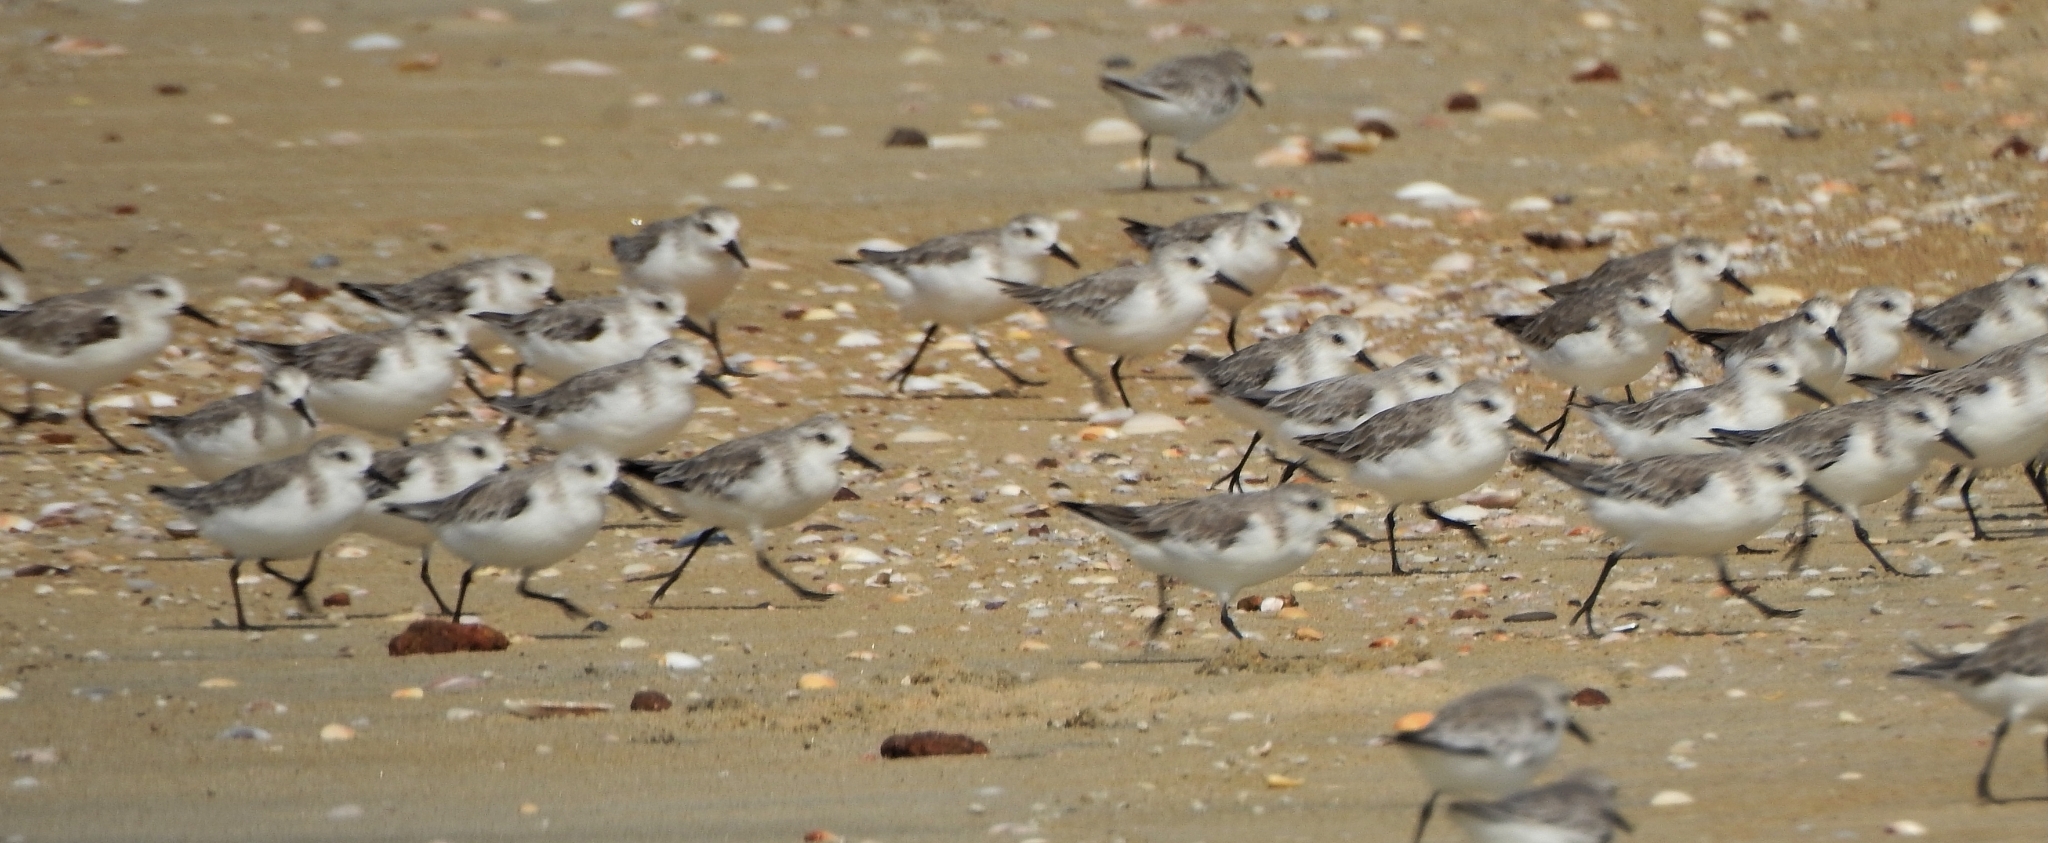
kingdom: Animalia
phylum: Chordata
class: Aves
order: Charadriiformes
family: Scolopacidae
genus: Calidris
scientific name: Calidris alba
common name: Sanderling
